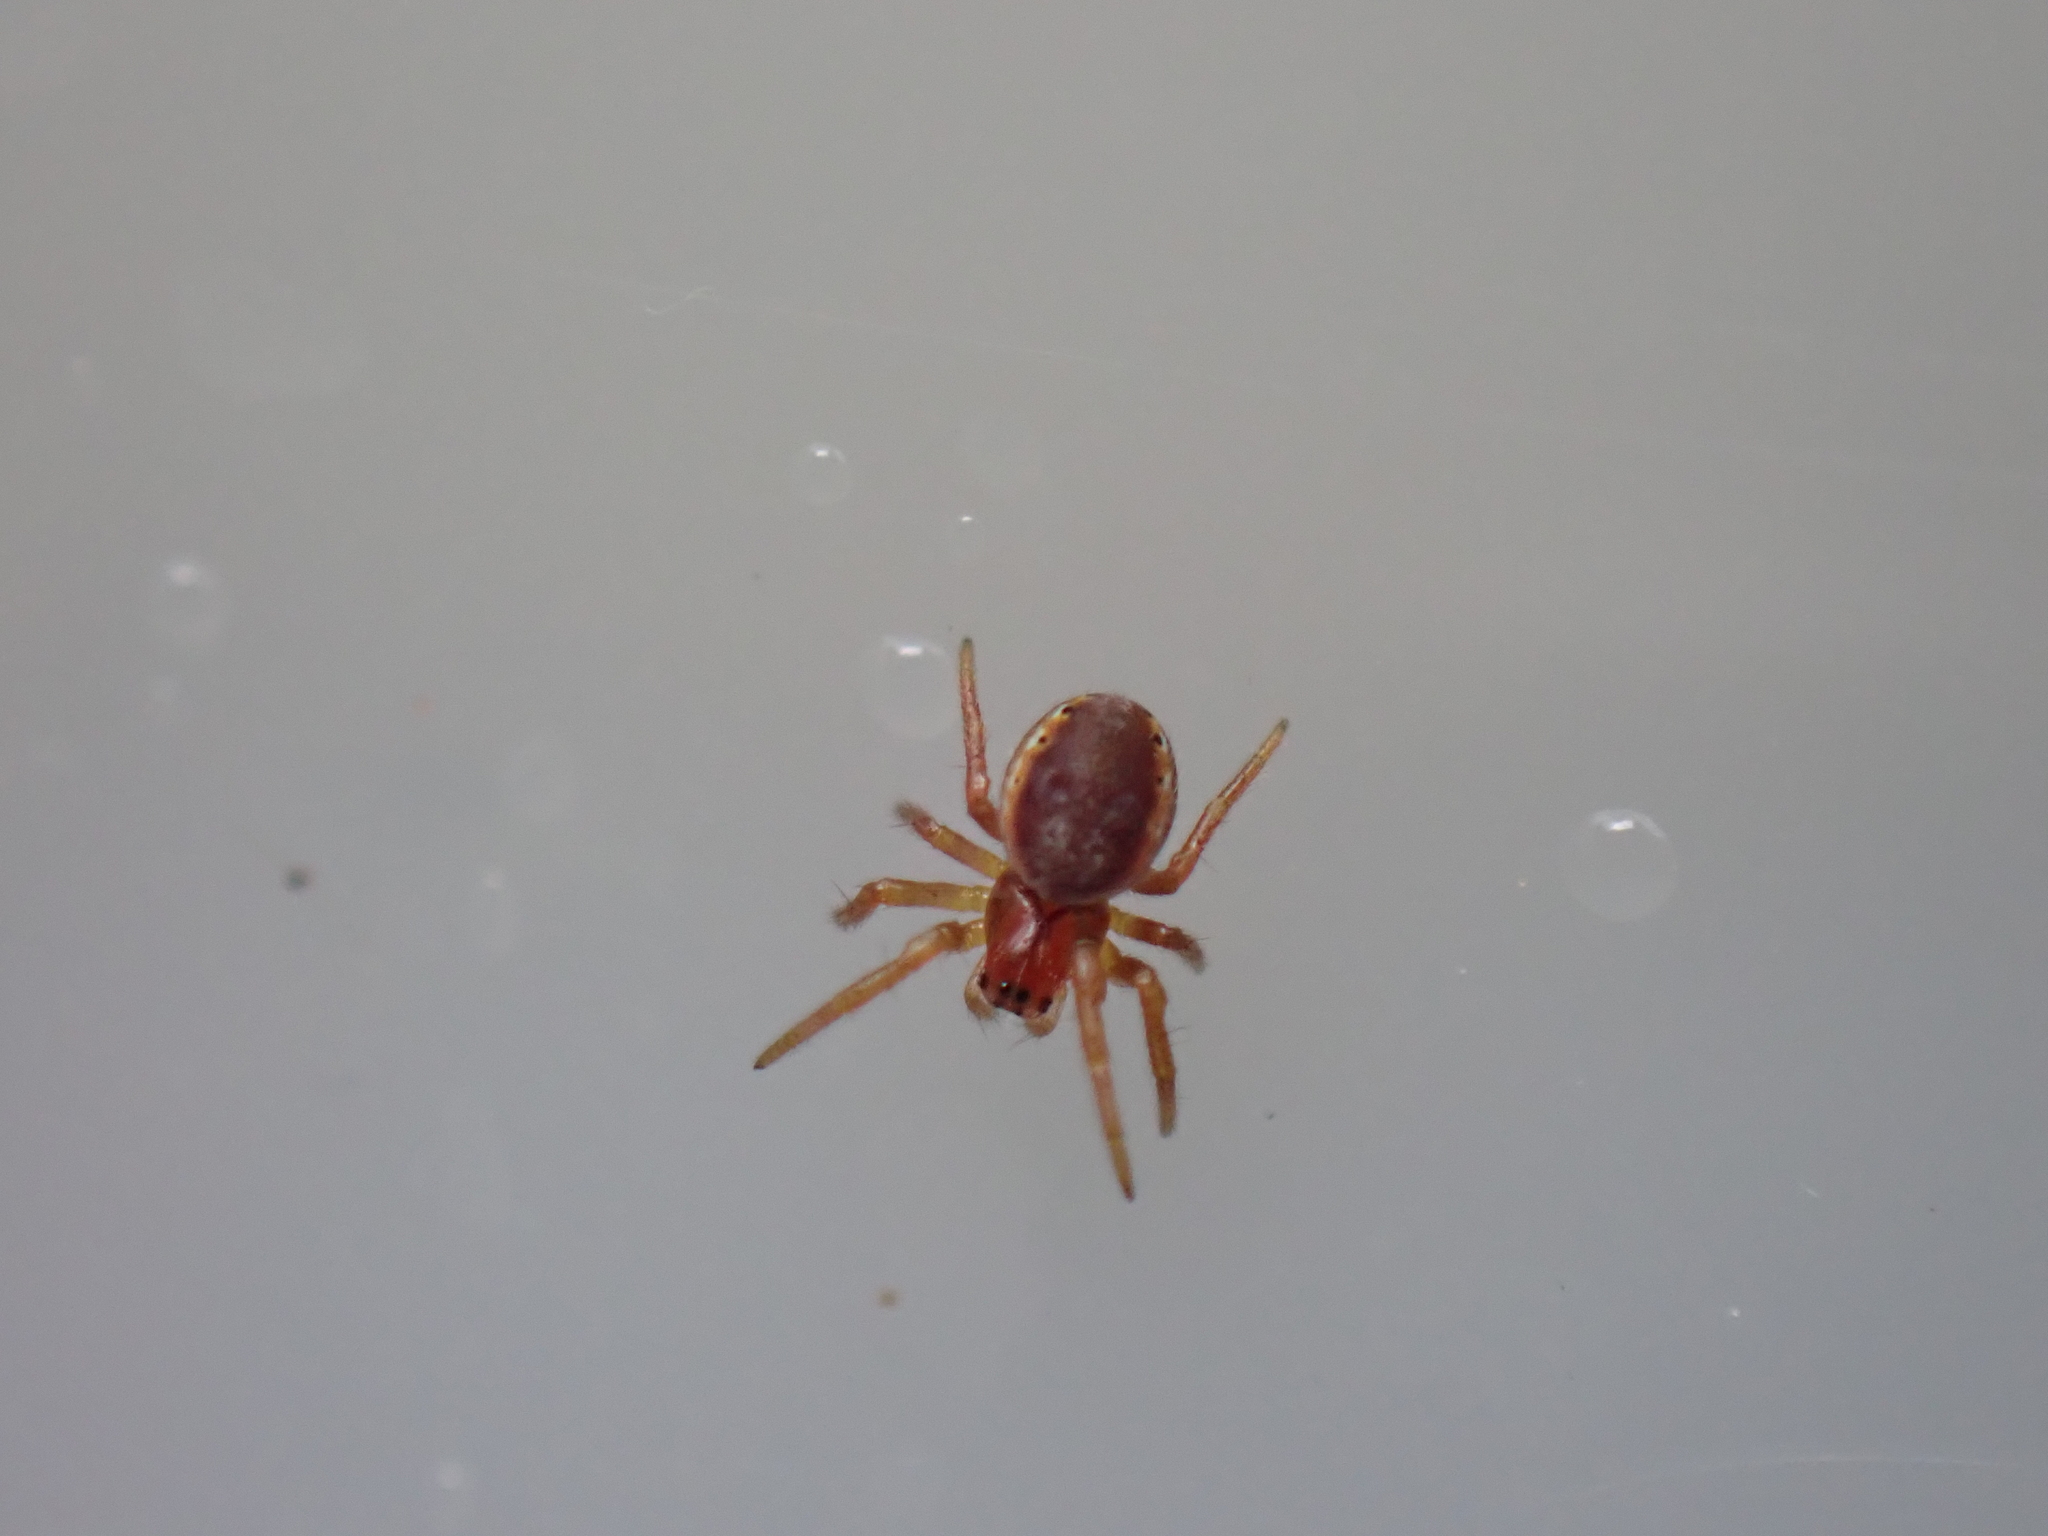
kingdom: Animalia
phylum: Arthropoda
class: Arachnida
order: Araneae
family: Araneidae
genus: Araniella
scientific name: Araniella
